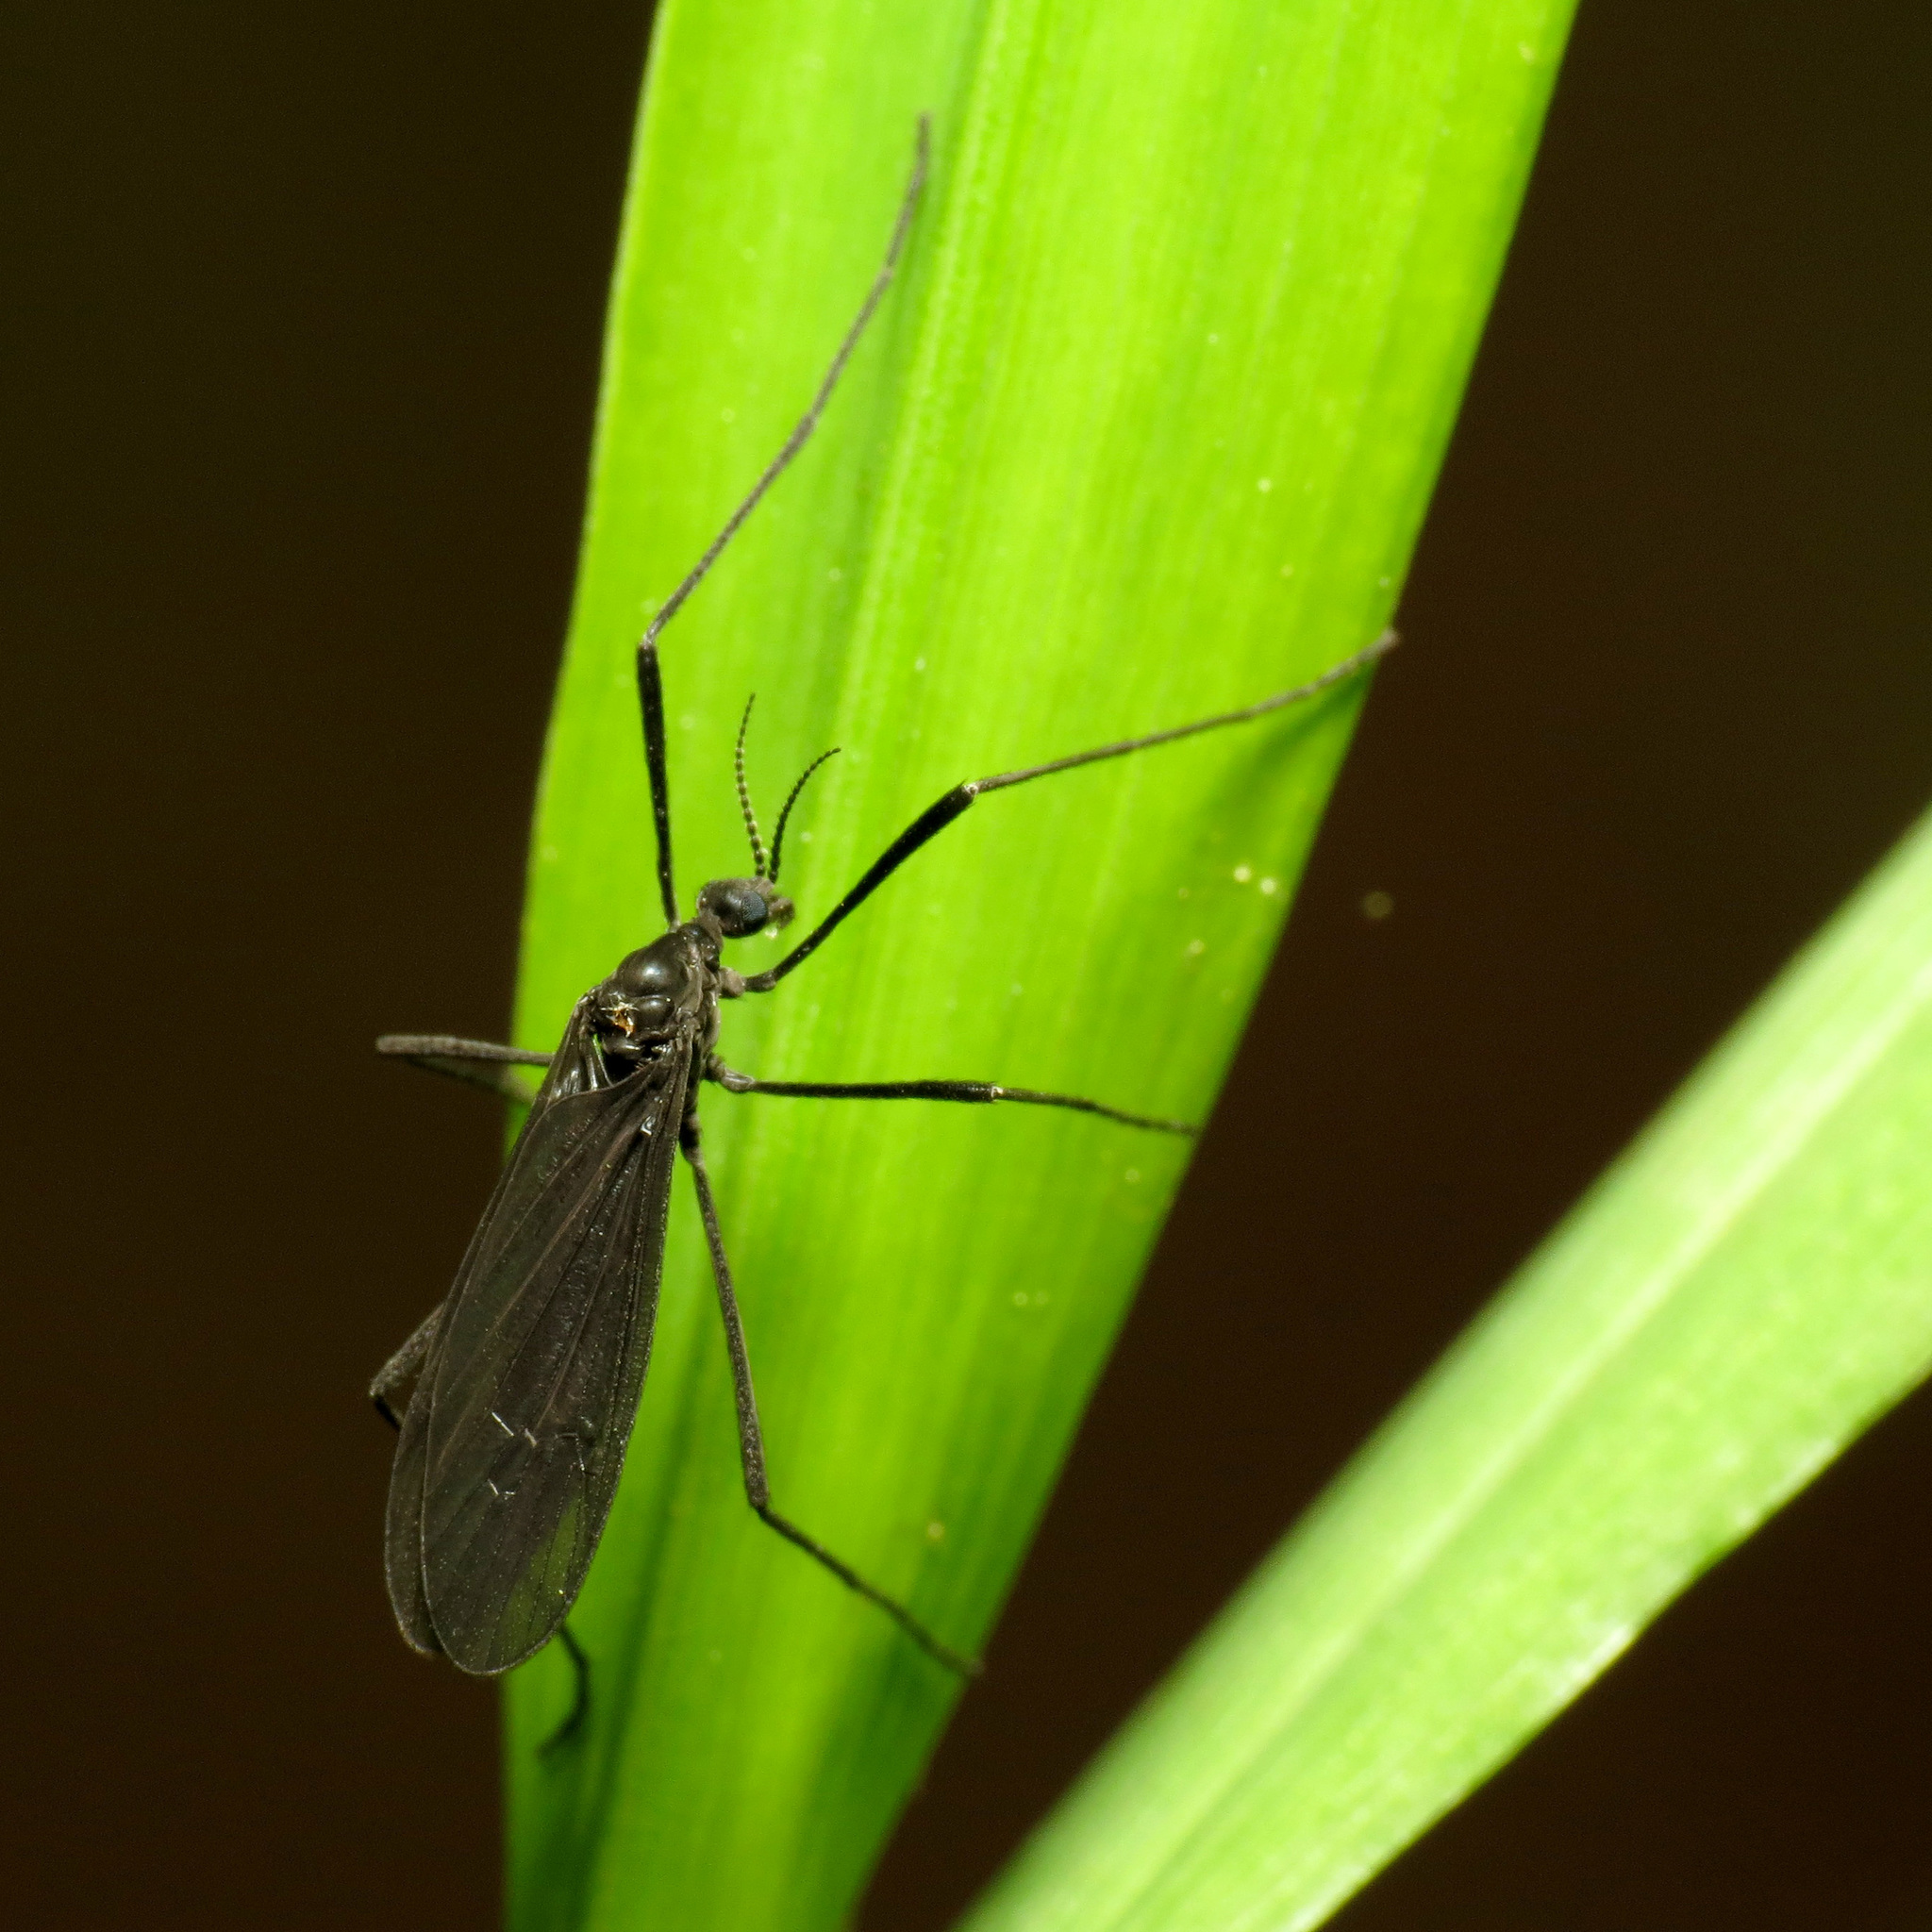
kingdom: Animalia
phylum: Arthropoda
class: Insecta
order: Diptera
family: Limoniidae
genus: Eugnophomyia
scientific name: Eugnophomyia luctuosa
